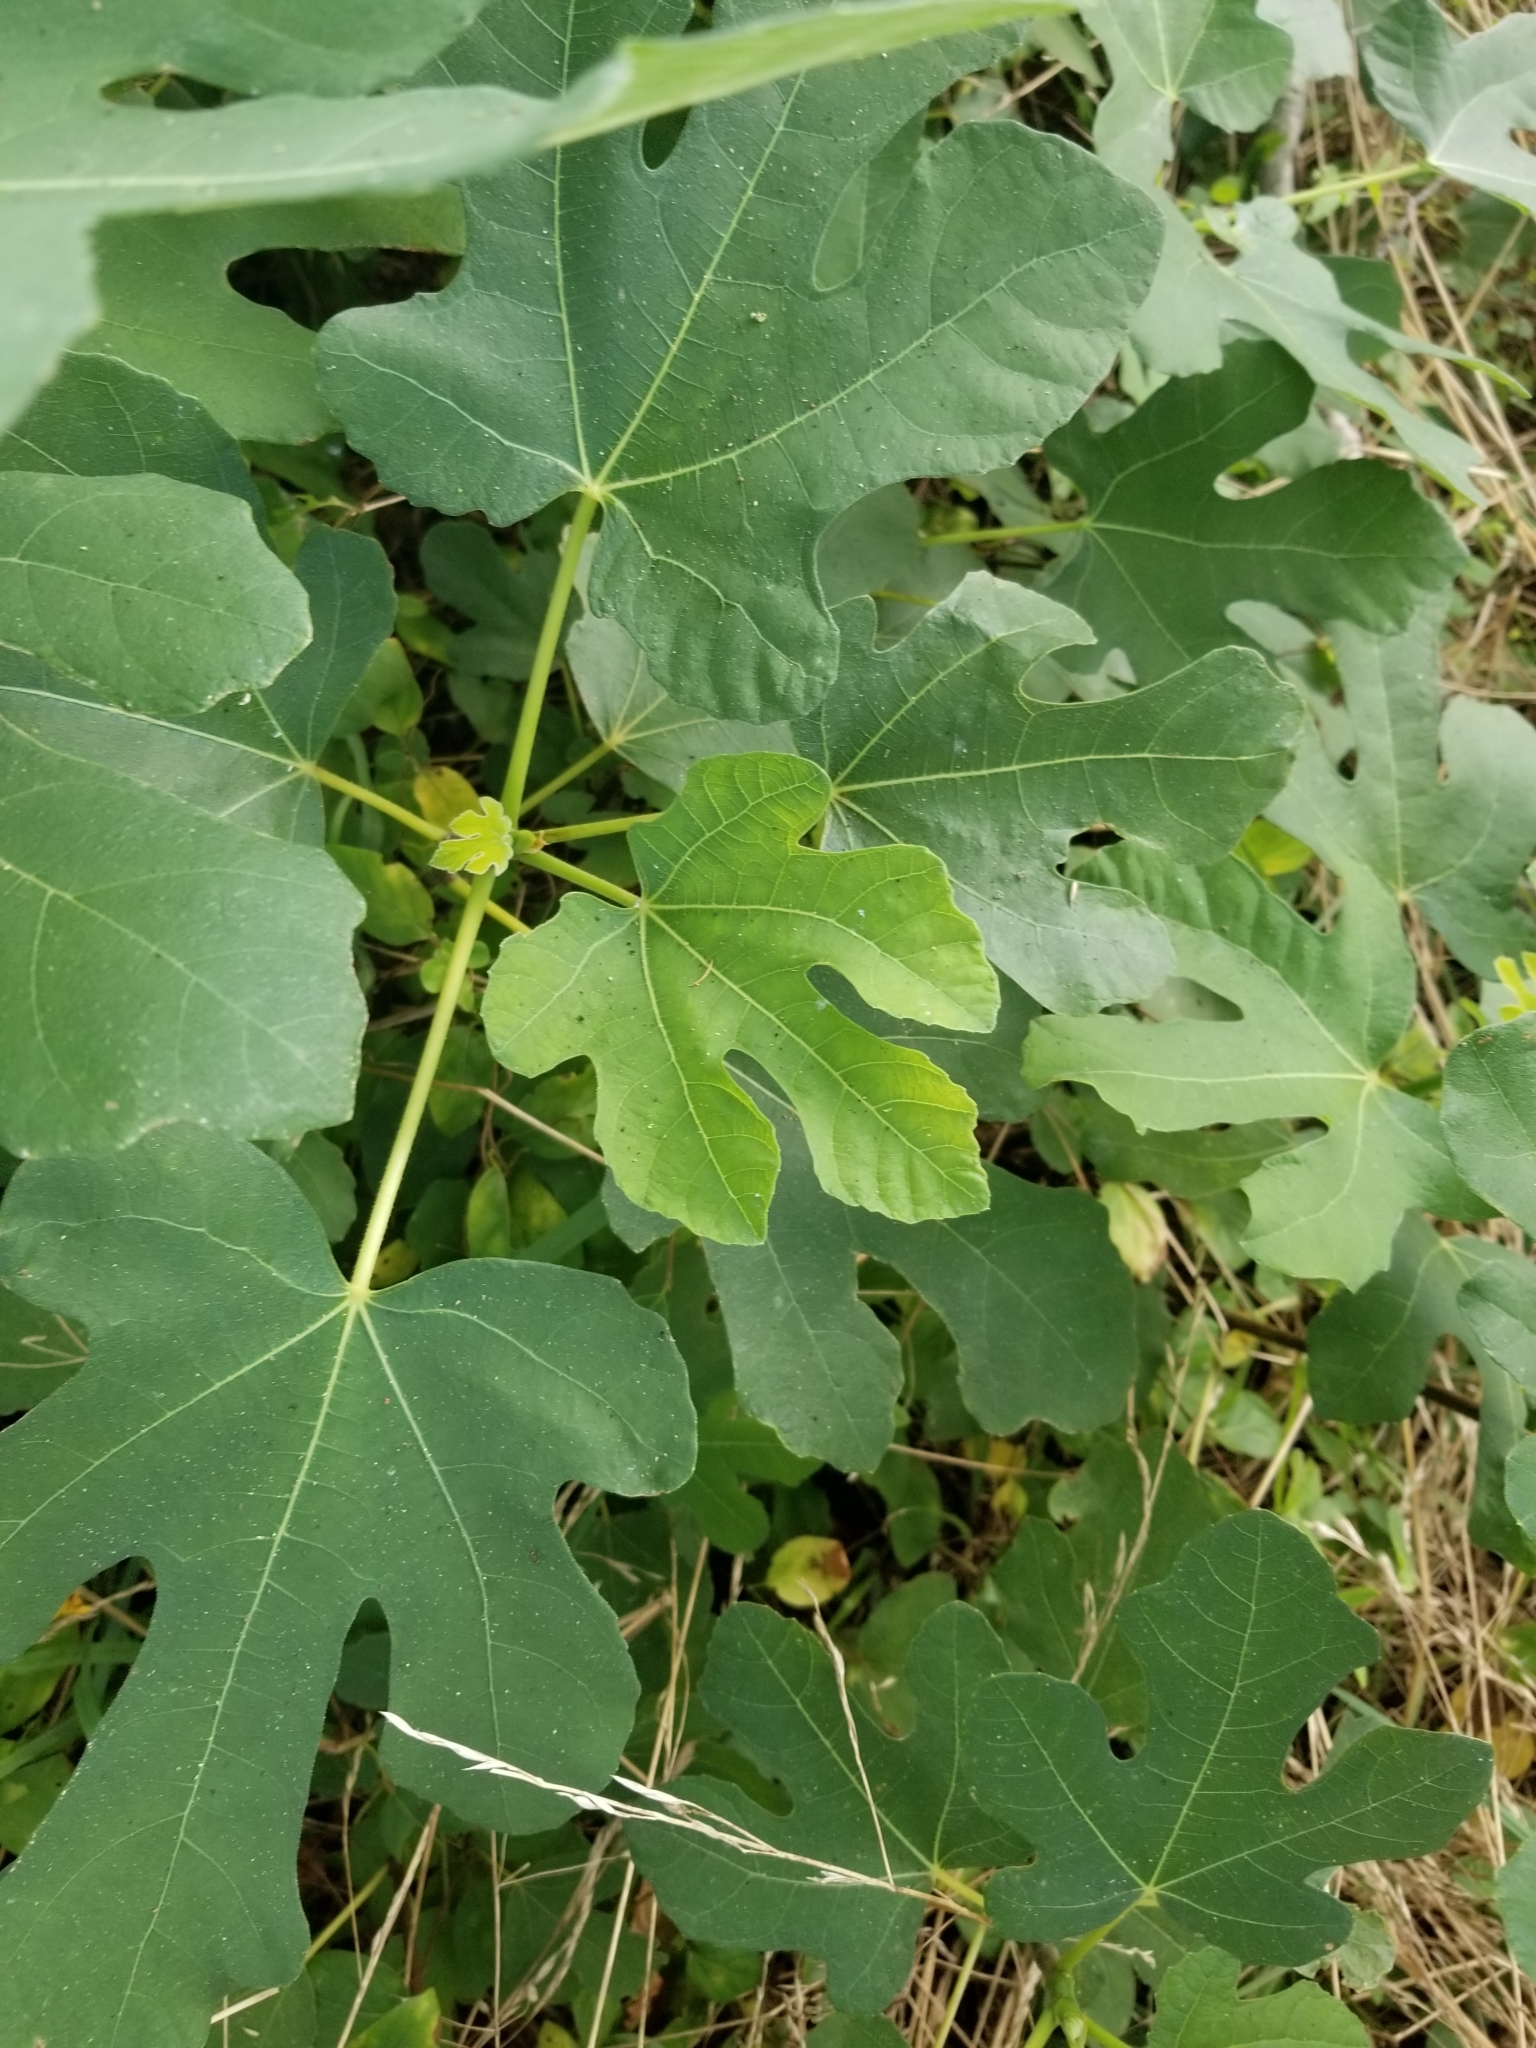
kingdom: Plantae
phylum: Tracheophyta
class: Magnoliopsida
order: Rosales
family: Moraceae
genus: Ficus
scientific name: Ficus carica
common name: Fig
